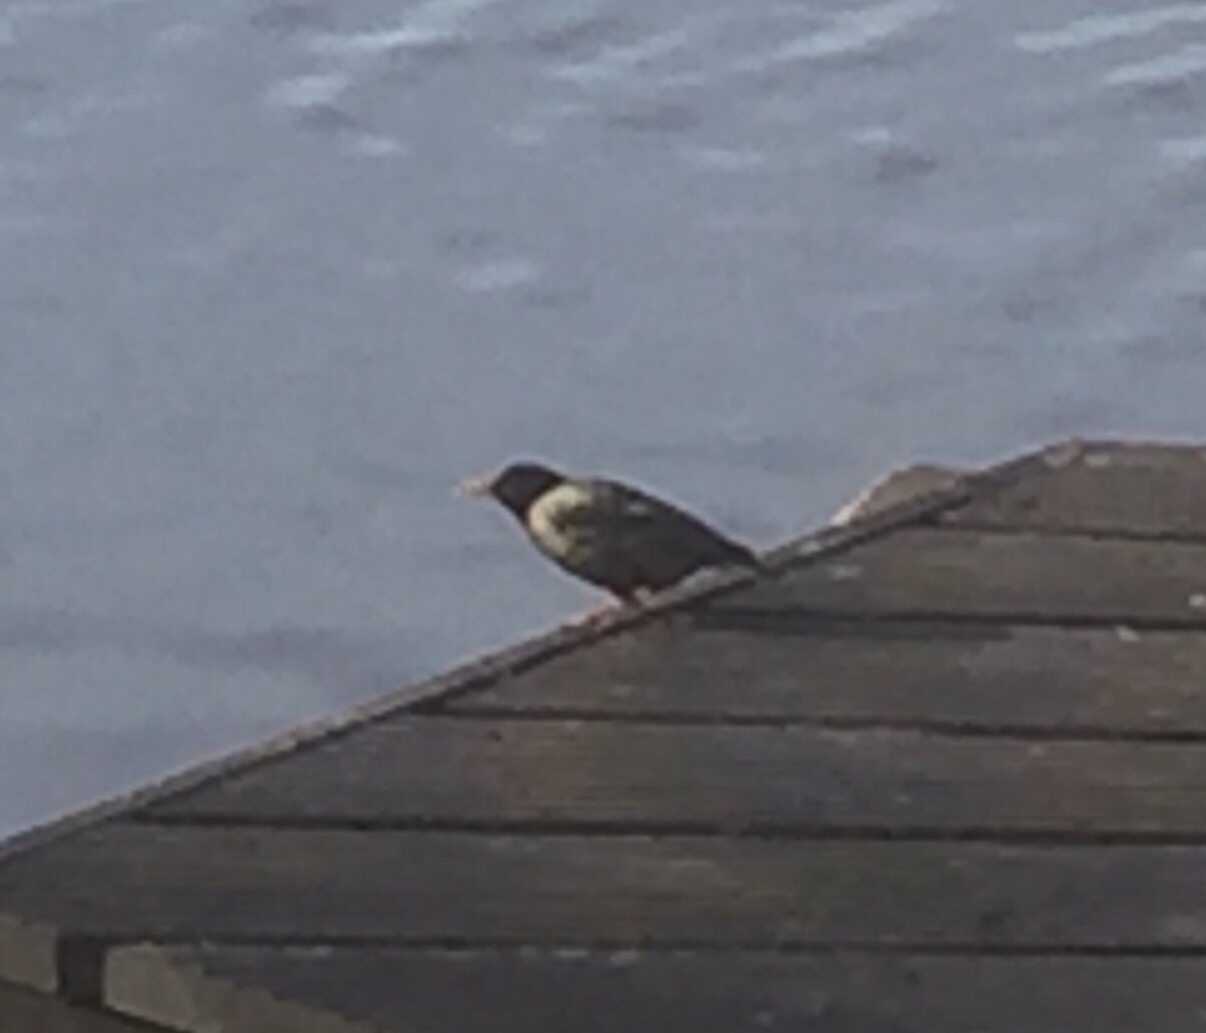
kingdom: Animalia
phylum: Chordata
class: Aves
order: Passeriformes
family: Sturnidae
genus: Sturnus
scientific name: Sturnus vulgaris
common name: Common starling
